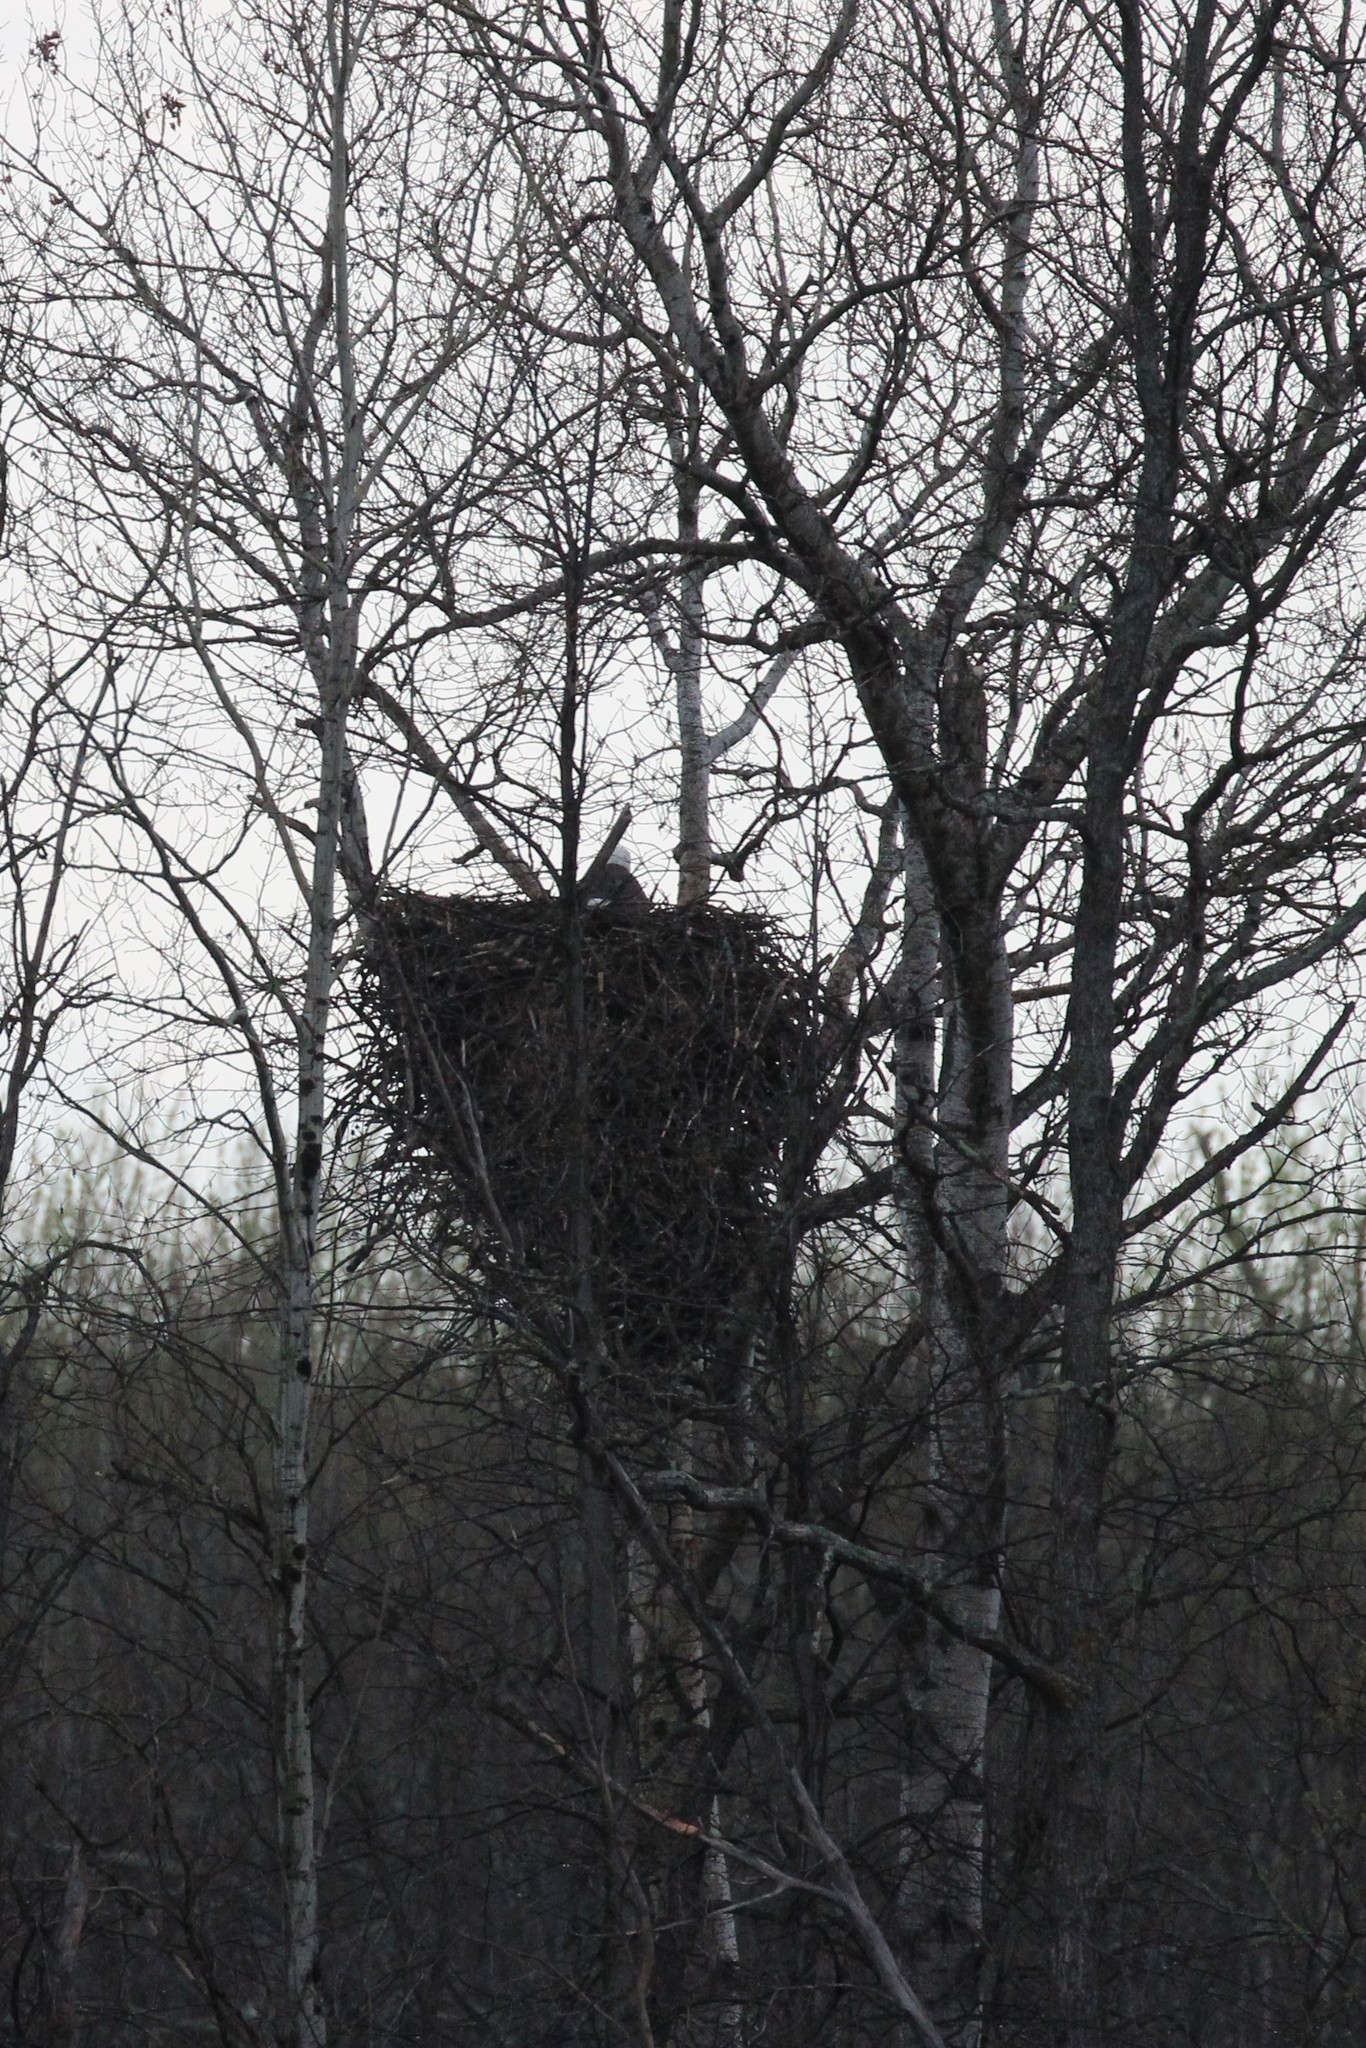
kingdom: Animalia
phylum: Chordata
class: Aves
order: Accipitriformes
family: Accipitridae
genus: Haliaeetus
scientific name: Haliaeetus leucocephalus
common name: Bald eagle
